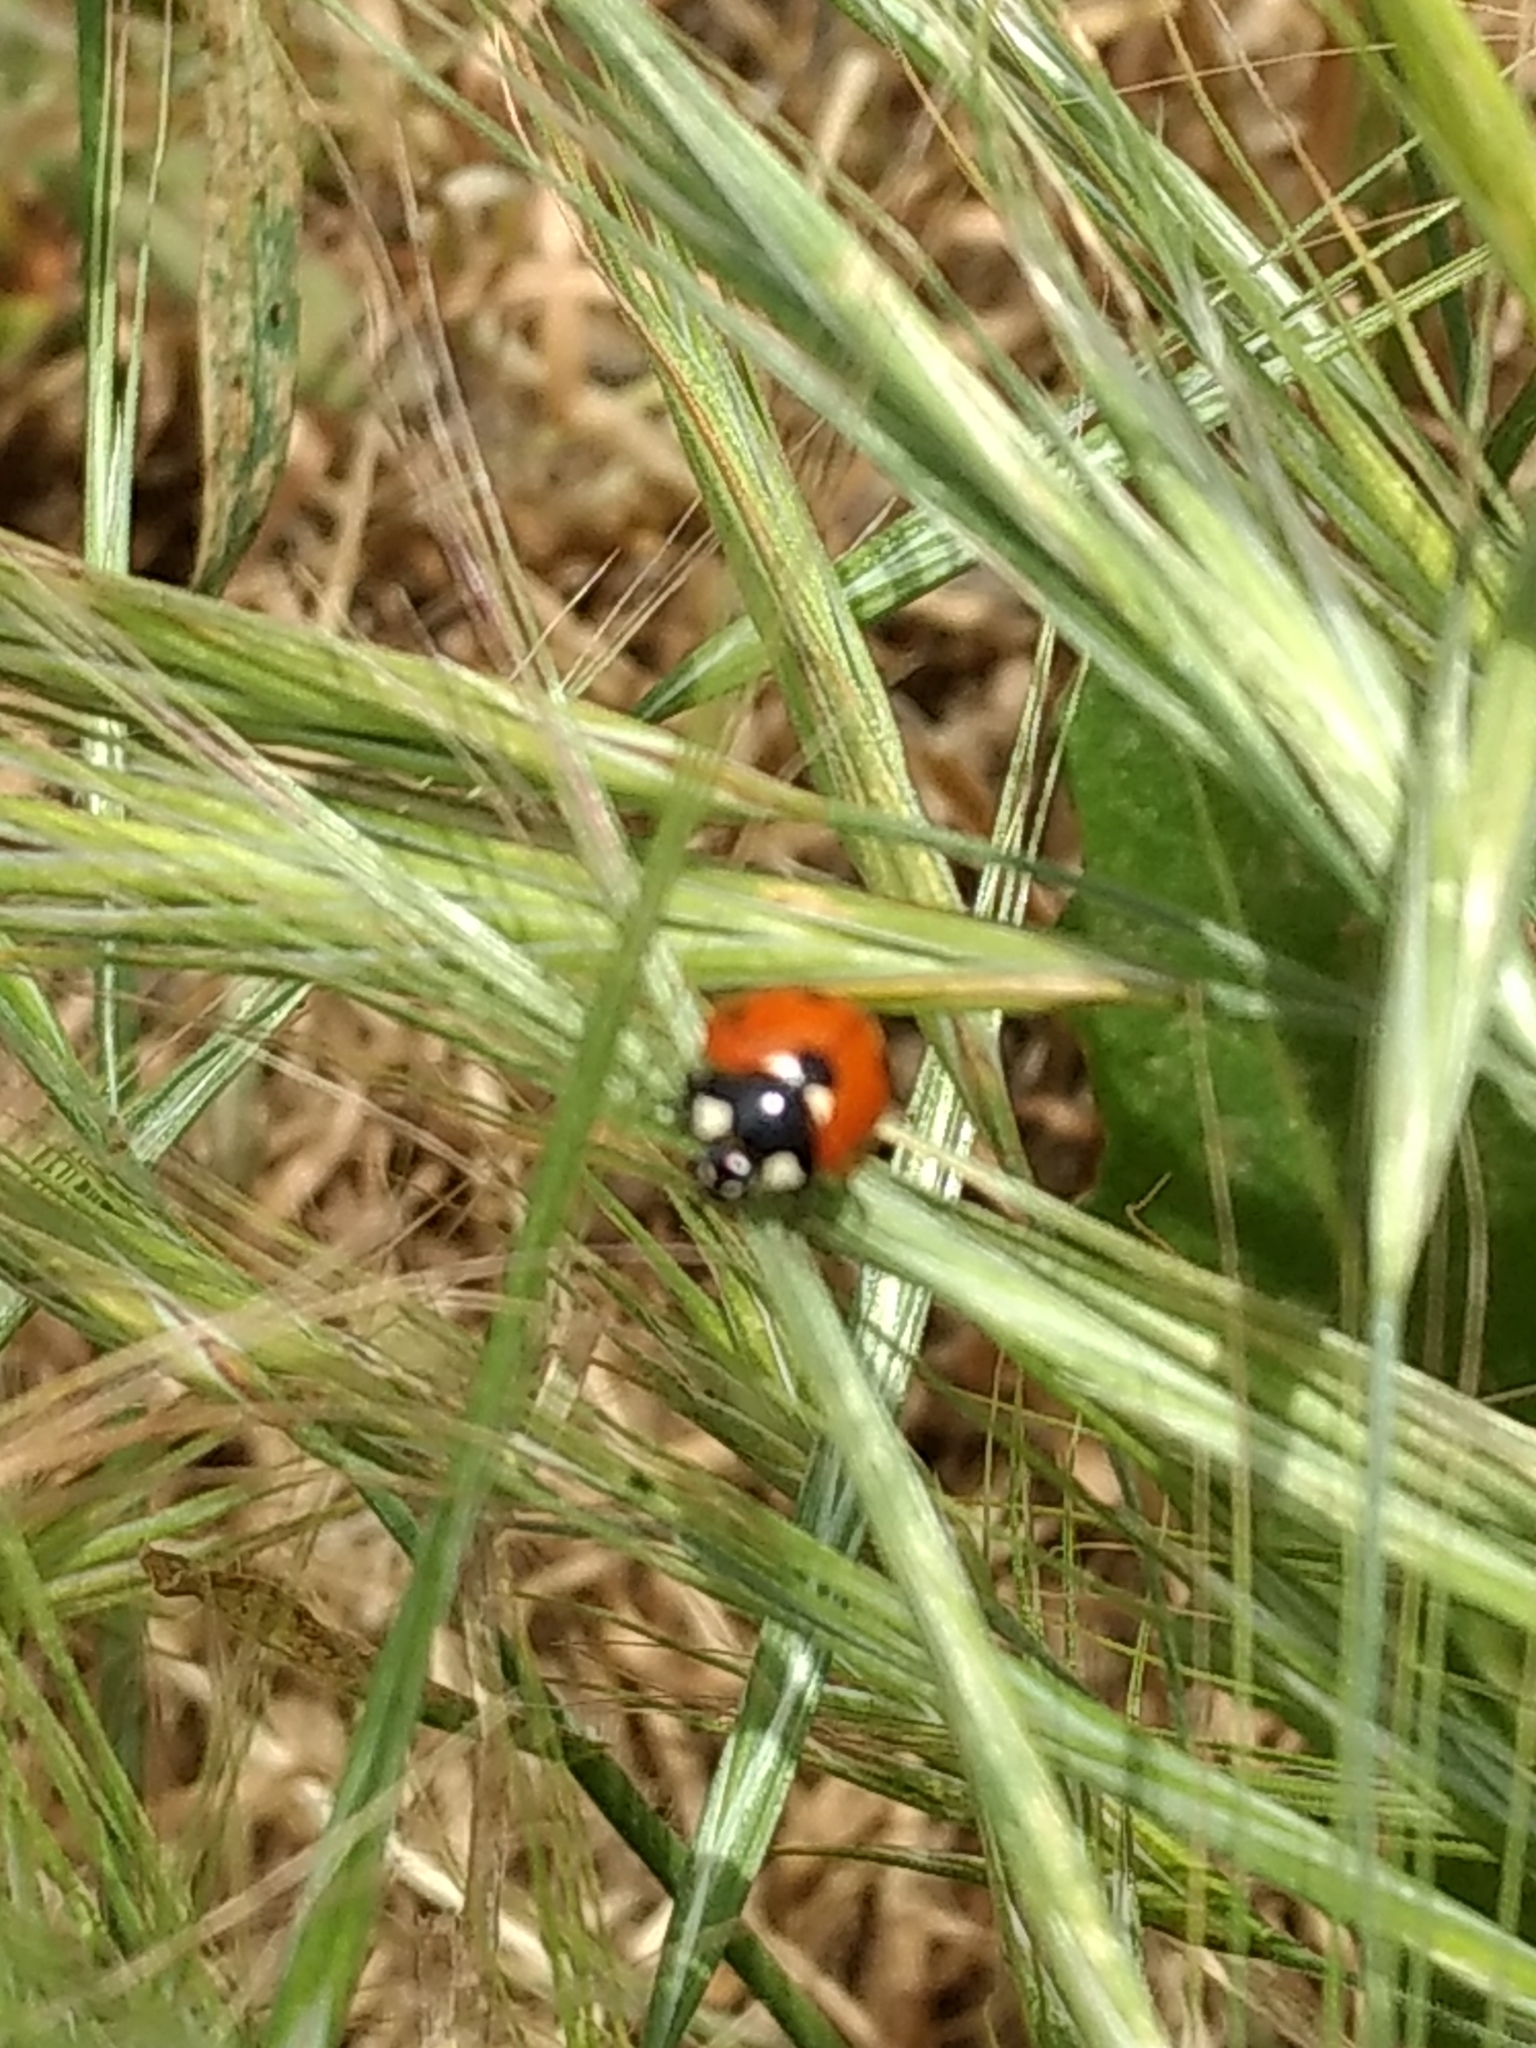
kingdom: Animalia
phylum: Arthropoda
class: Insecta
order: Coleoptera
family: Coccinellidae
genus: Coccinella
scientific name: Coccinella septempunctata
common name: Sevenspotted lady beetle
